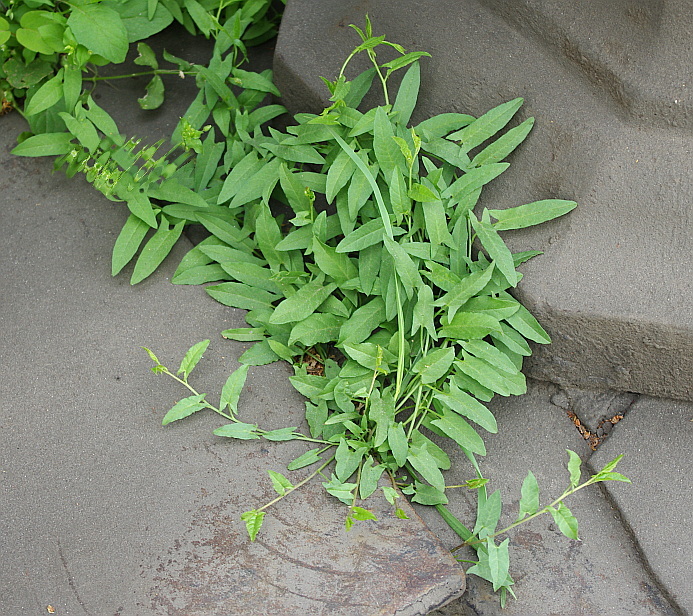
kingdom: Plantae
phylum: Tracheophyta
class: Magnoliopsida
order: Solanales
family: Convolvulaceae
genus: Convolvulus
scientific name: Convolvulus arvensis
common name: Field bindweed
